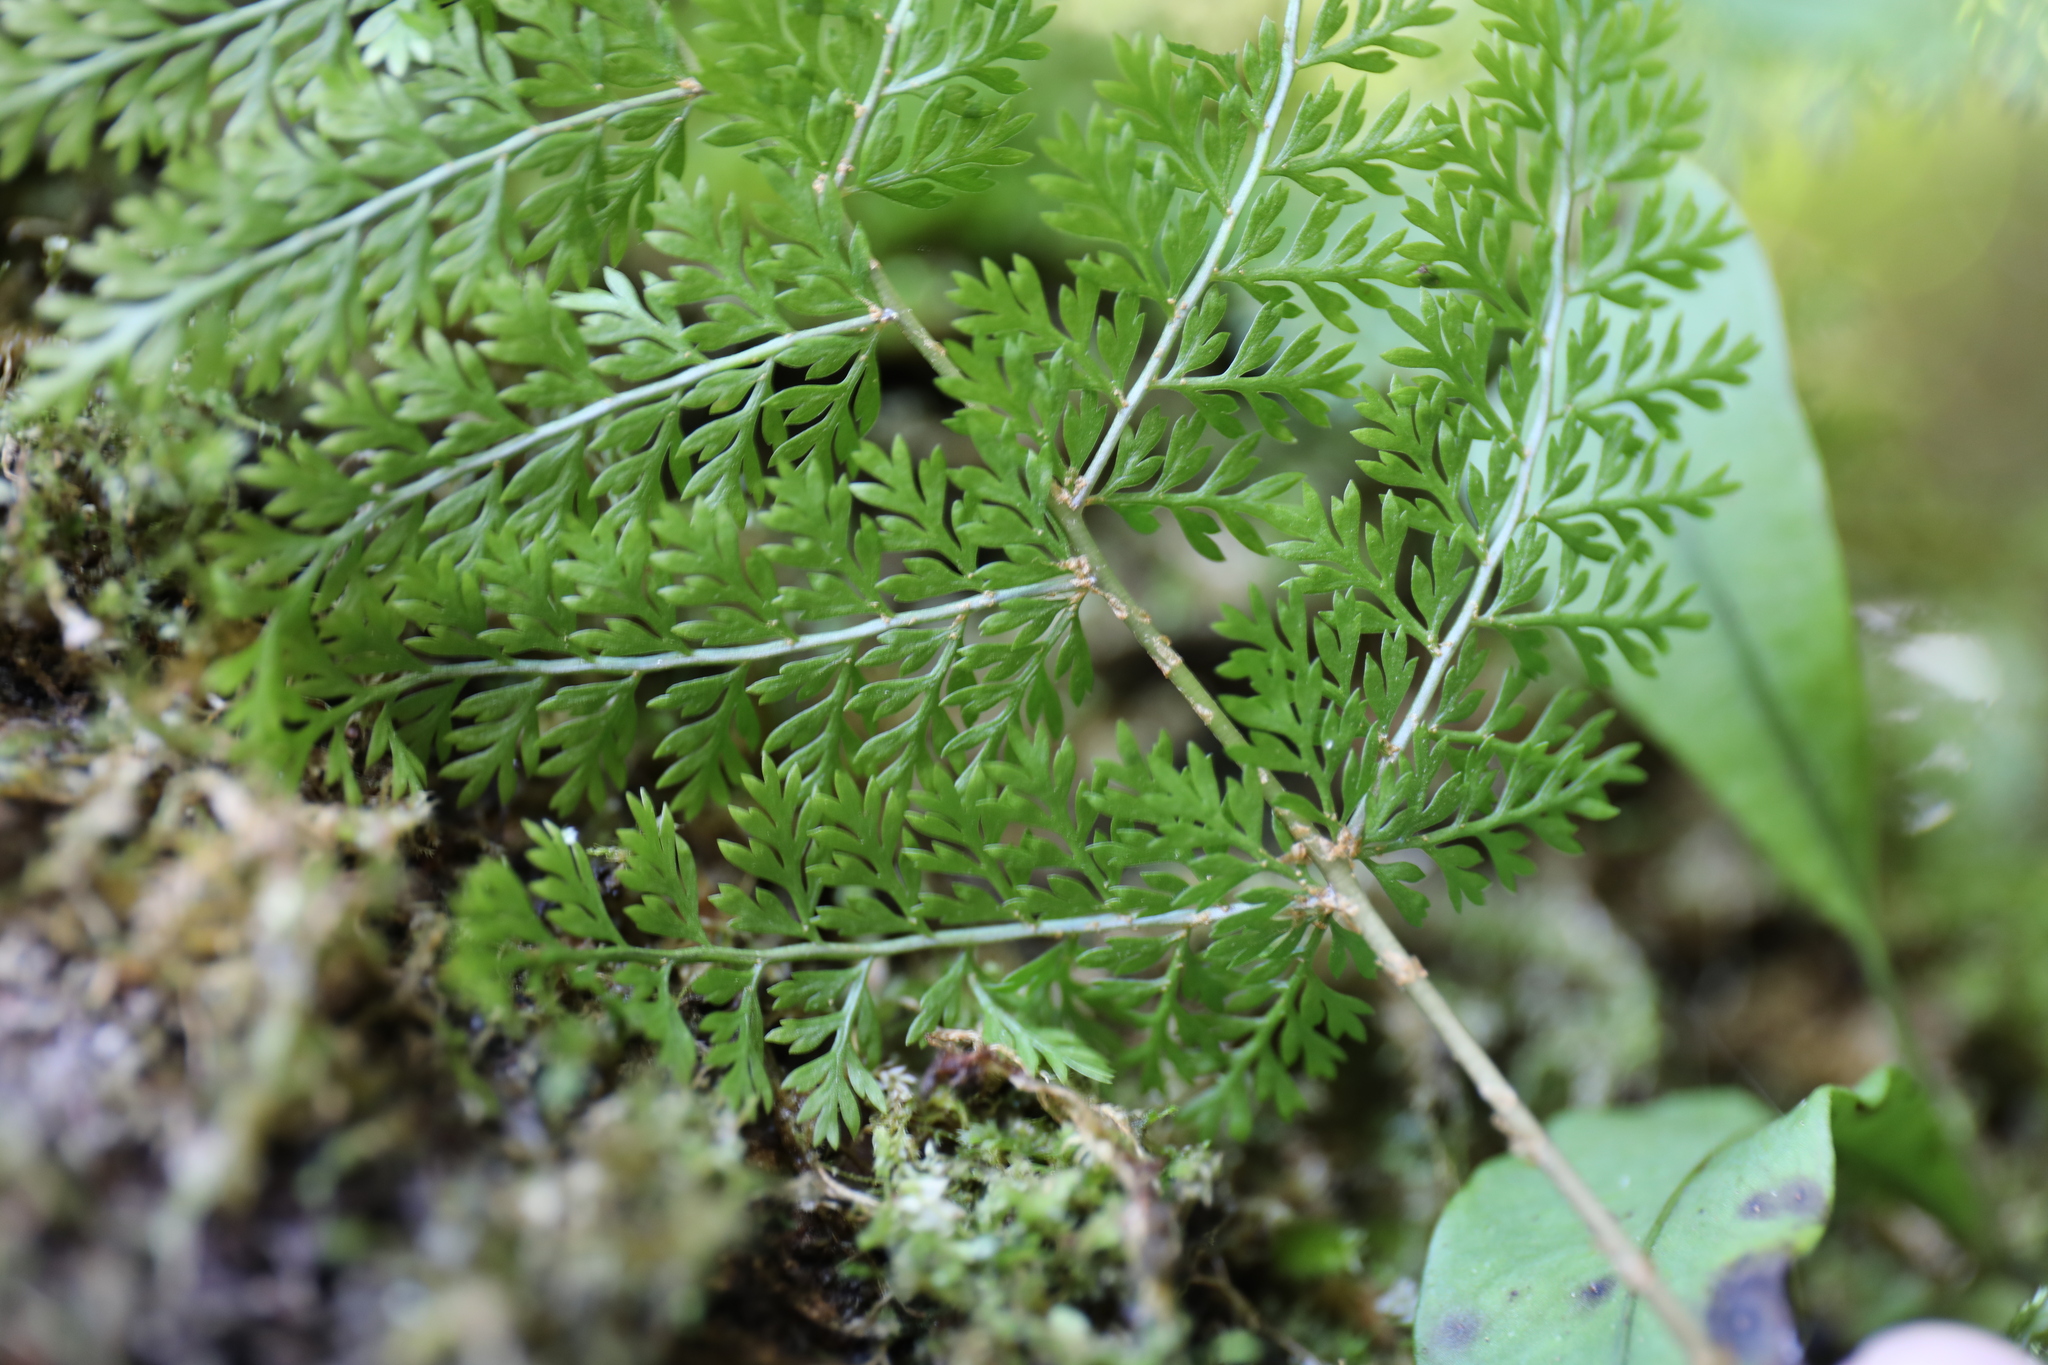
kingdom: Plantae
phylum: Tracheophyta
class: Polypodiopsida
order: Polypodiales
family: Davalliaceae
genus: Davallia
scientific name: Davallia perdurans
